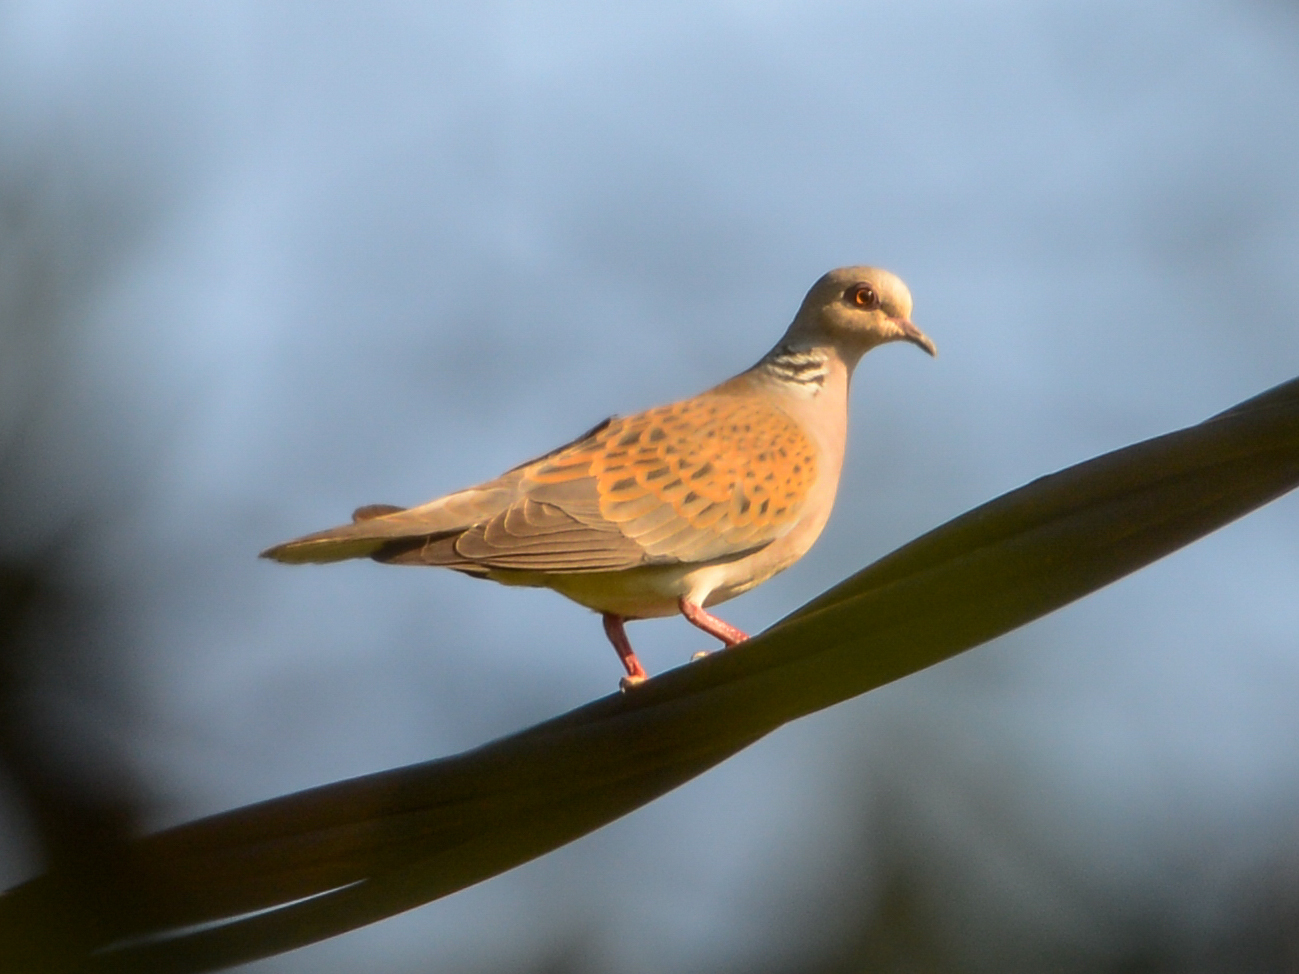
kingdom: Animalia
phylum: Chordata
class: Aves
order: Columbiformes
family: Columbidae
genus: Streptopelia
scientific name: Streptopelia turtur
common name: European turtle dove
